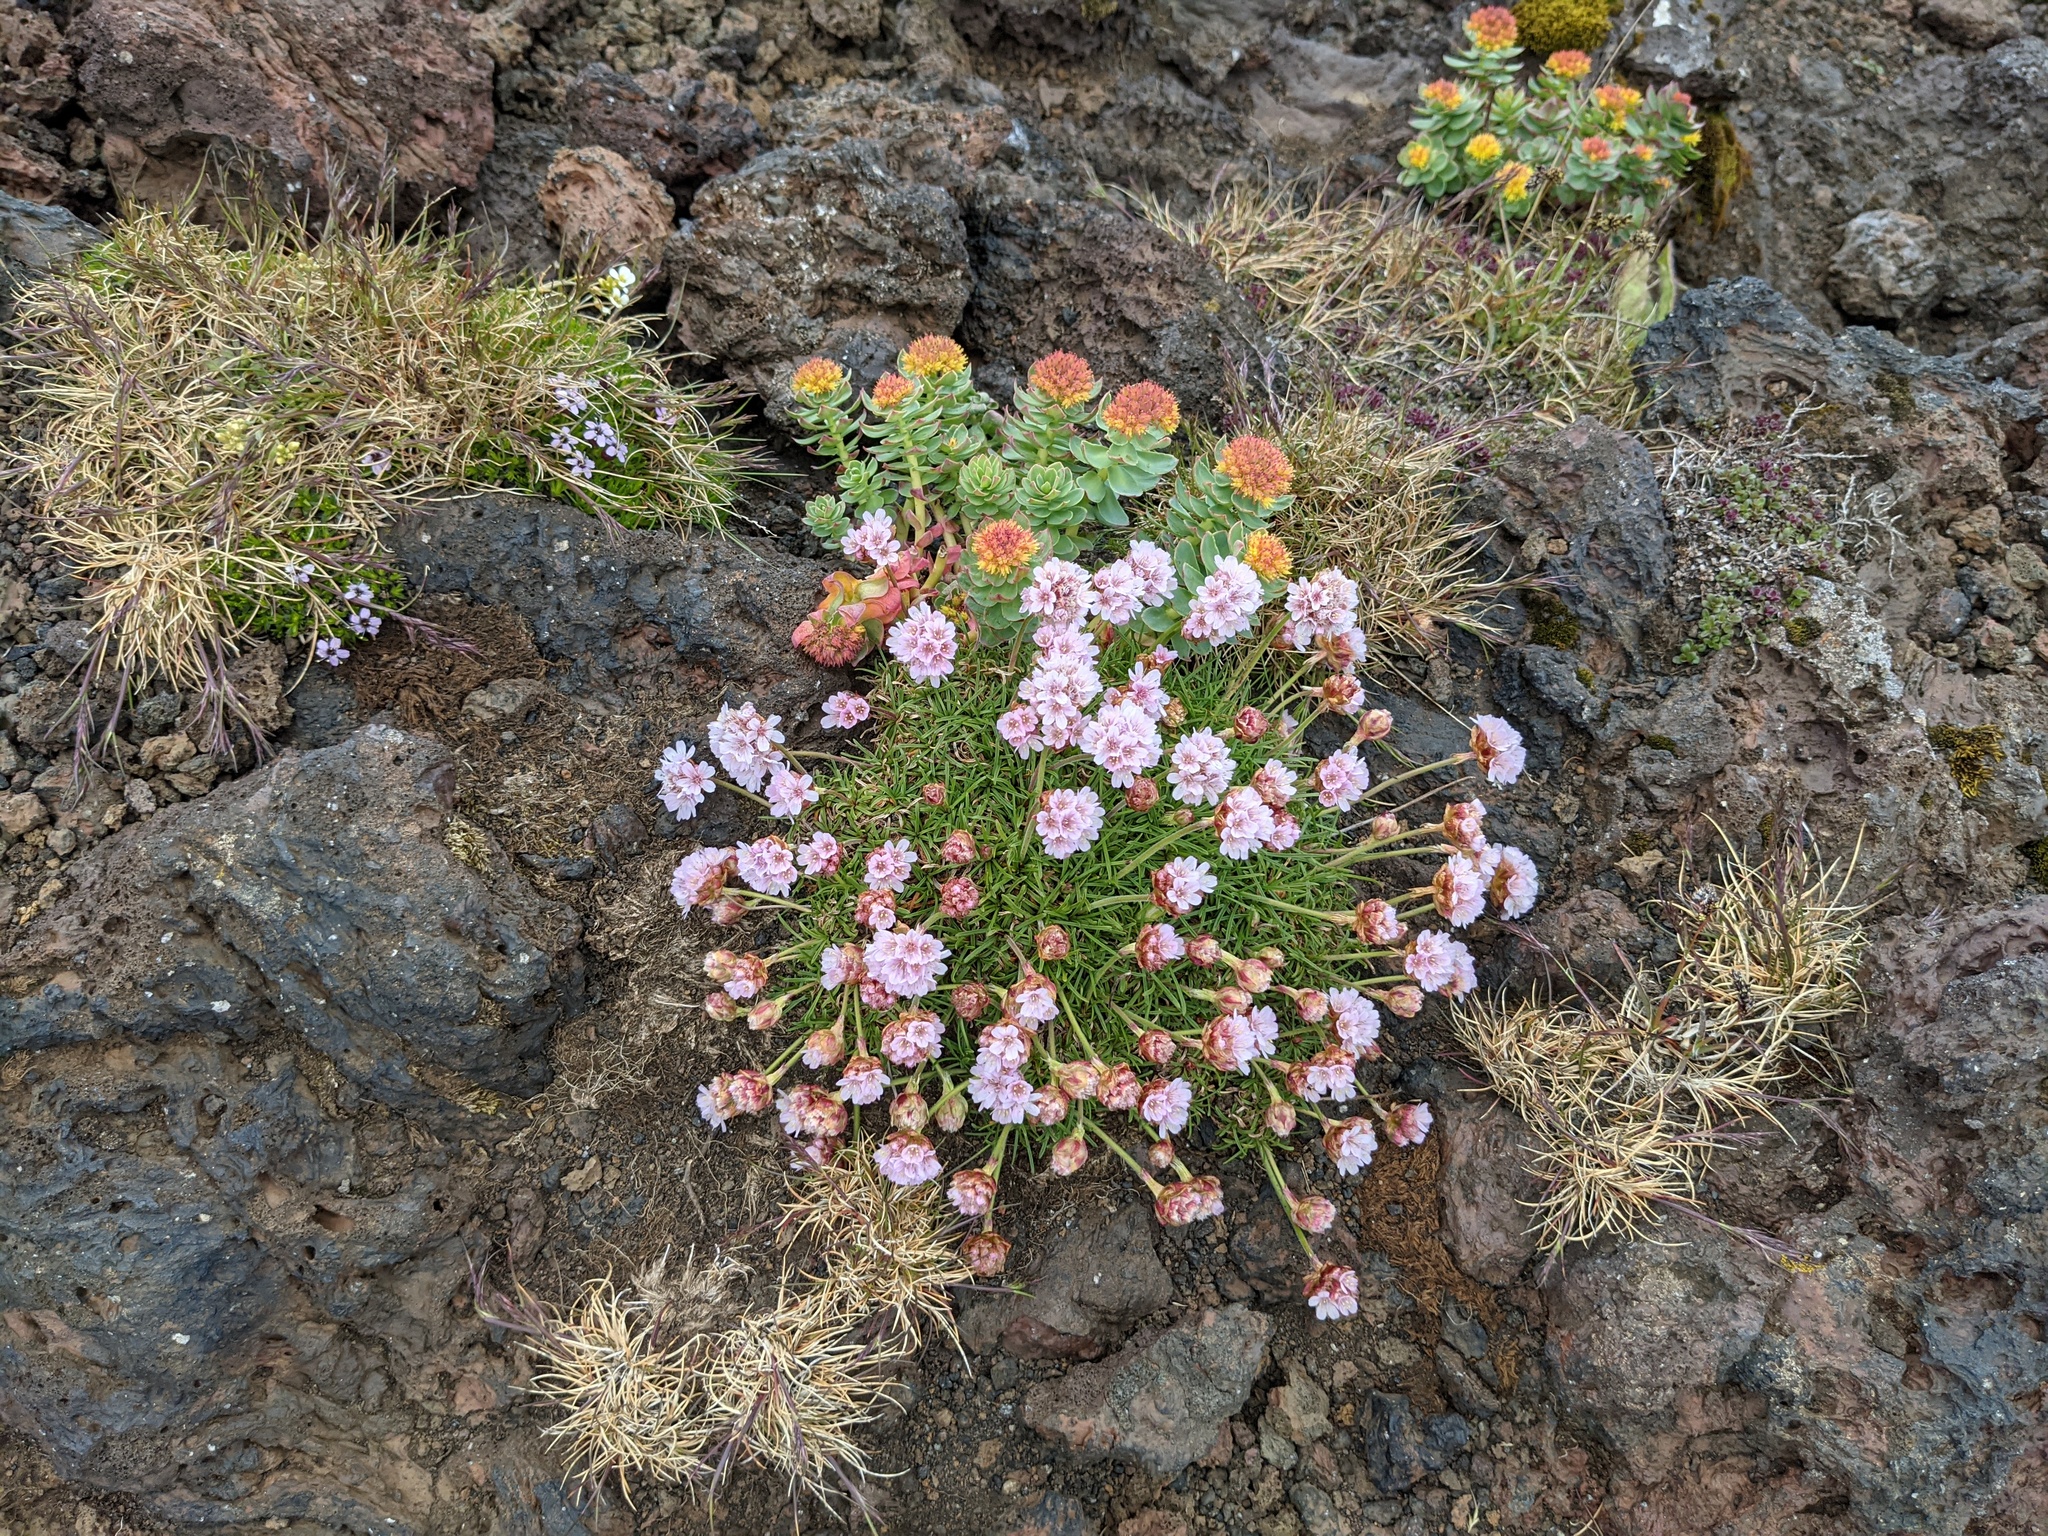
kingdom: Plantae
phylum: Tracheophyta
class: Magnoliopsida
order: Caryophyllales
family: Plumbaginaceae
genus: Armeria
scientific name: Armeria maritima
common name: Thrift
